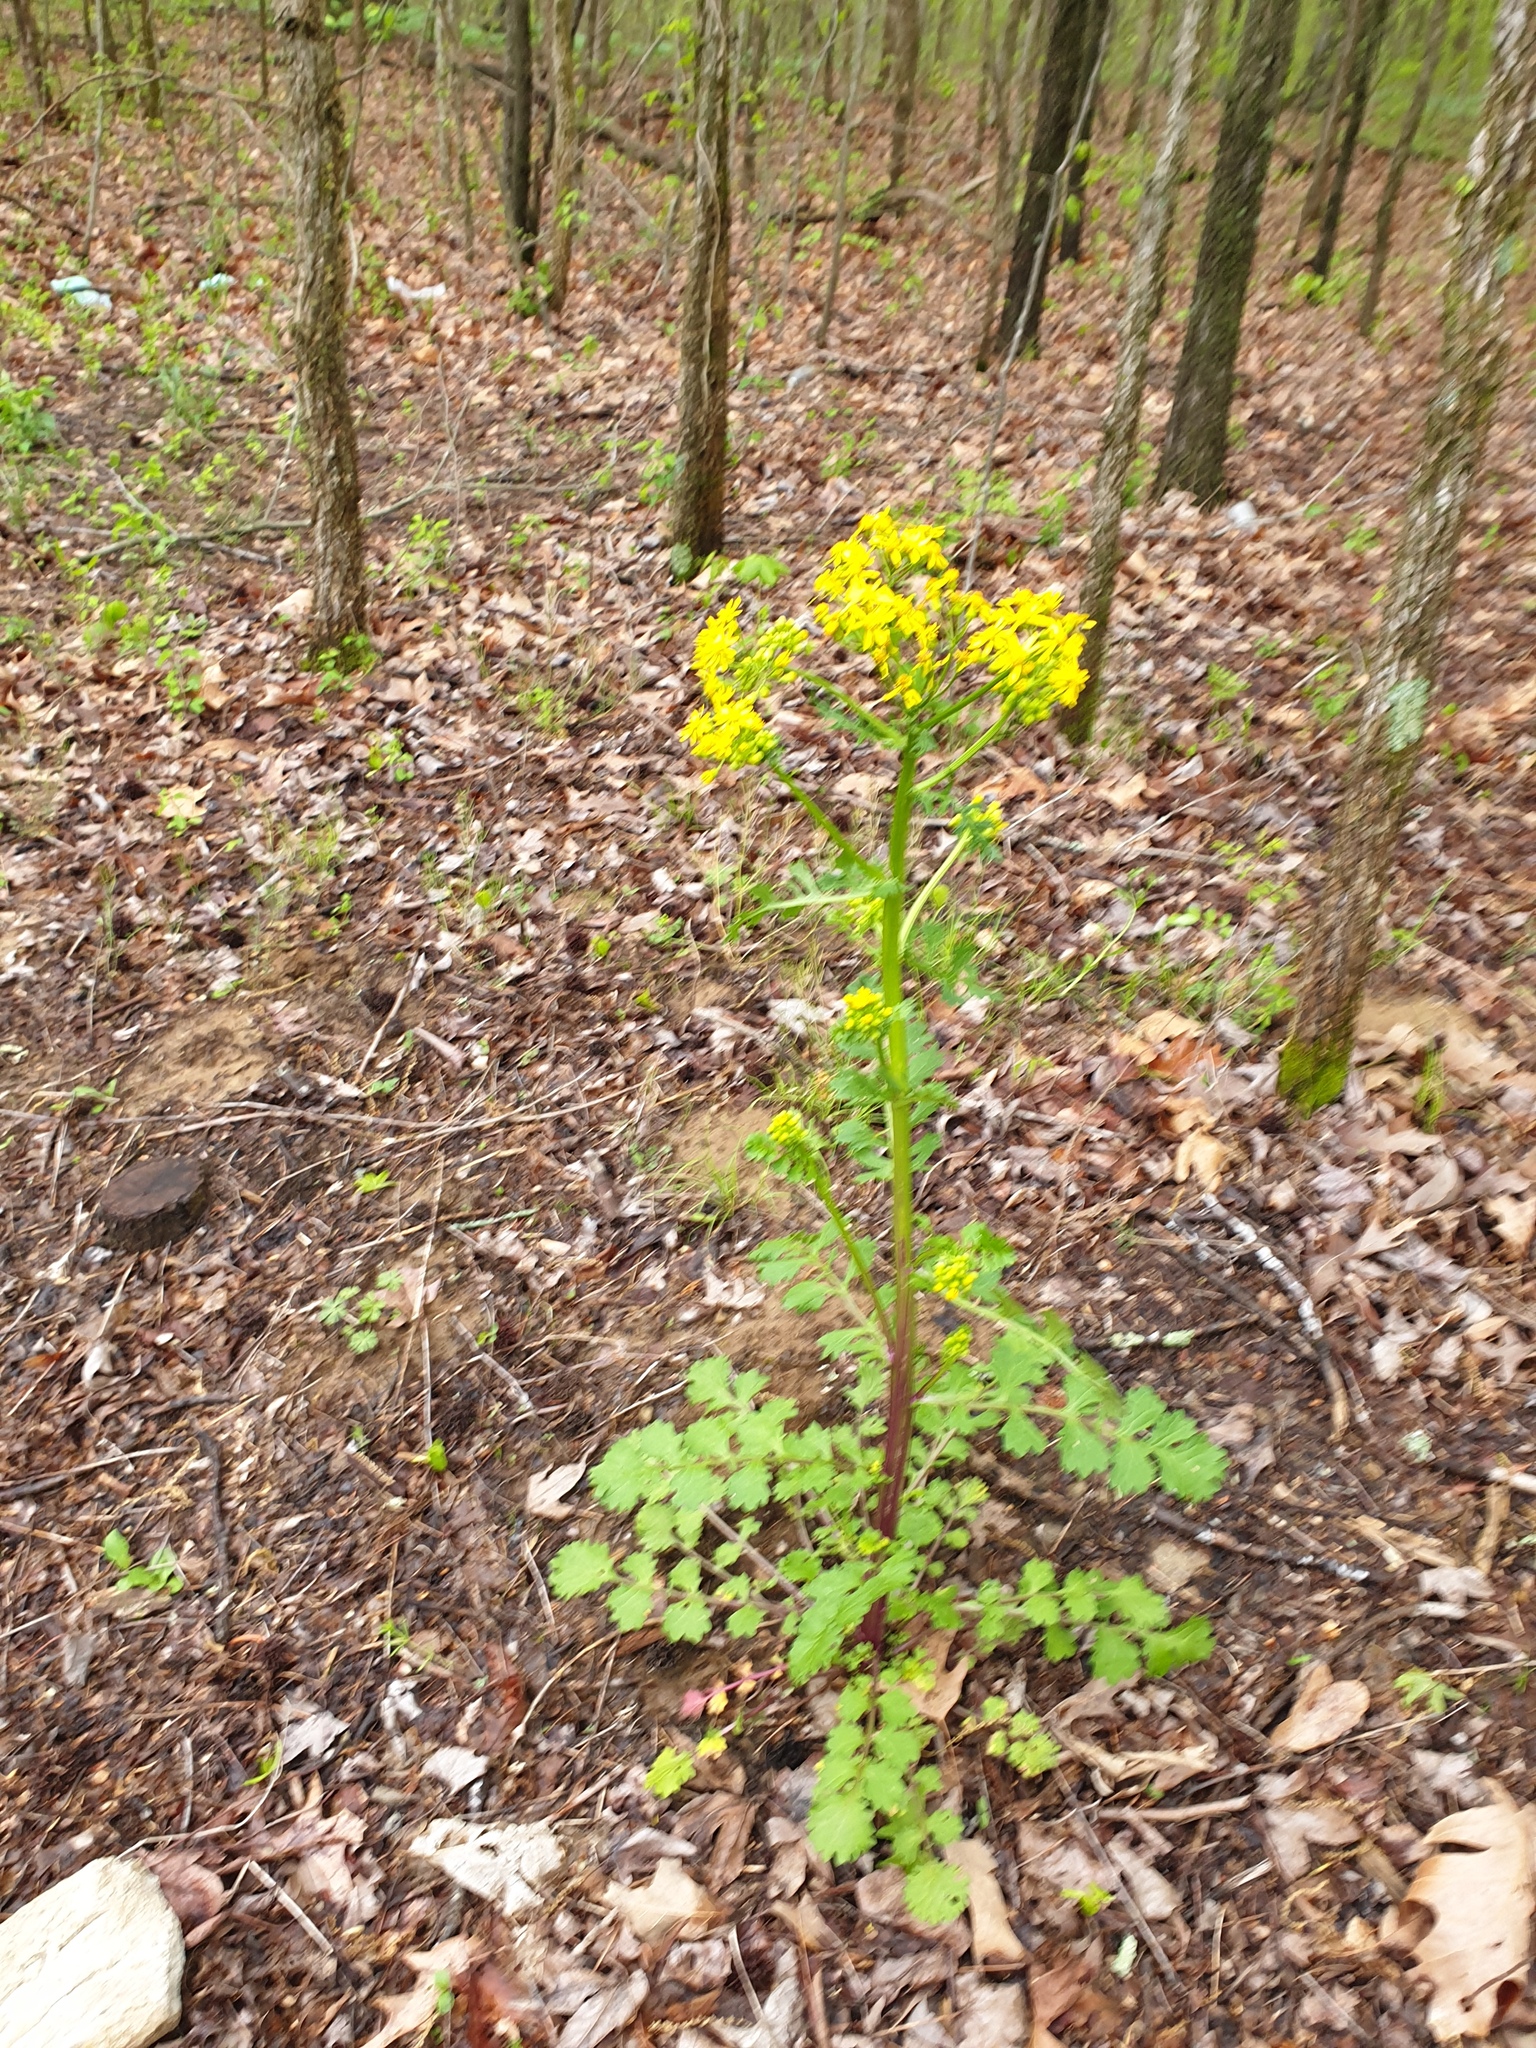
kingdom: Plantae
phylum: Tracheophyta
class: Magnoliopsida
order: Asterales
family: Asteraceae
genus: Packera
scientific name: Packera glabella
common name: Butterweed
